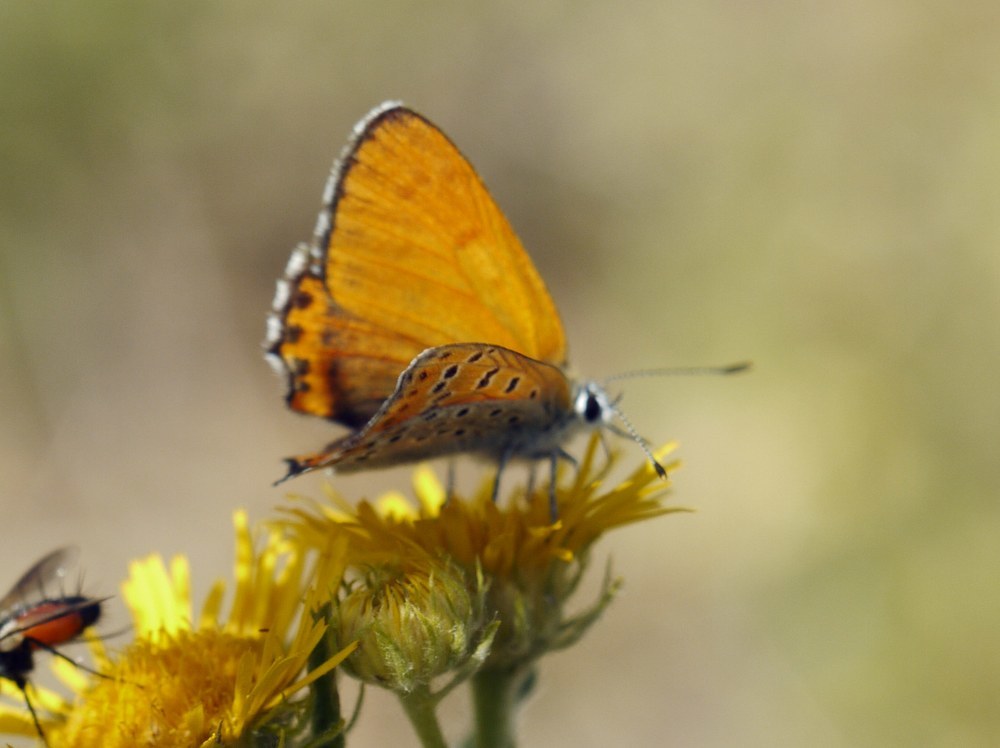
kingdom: Animalia
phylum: Arthropoda
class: Insecta
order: Lepidoptera
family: Lycaenidae
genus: Thersamonia
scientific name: Thersamonia thersamon
